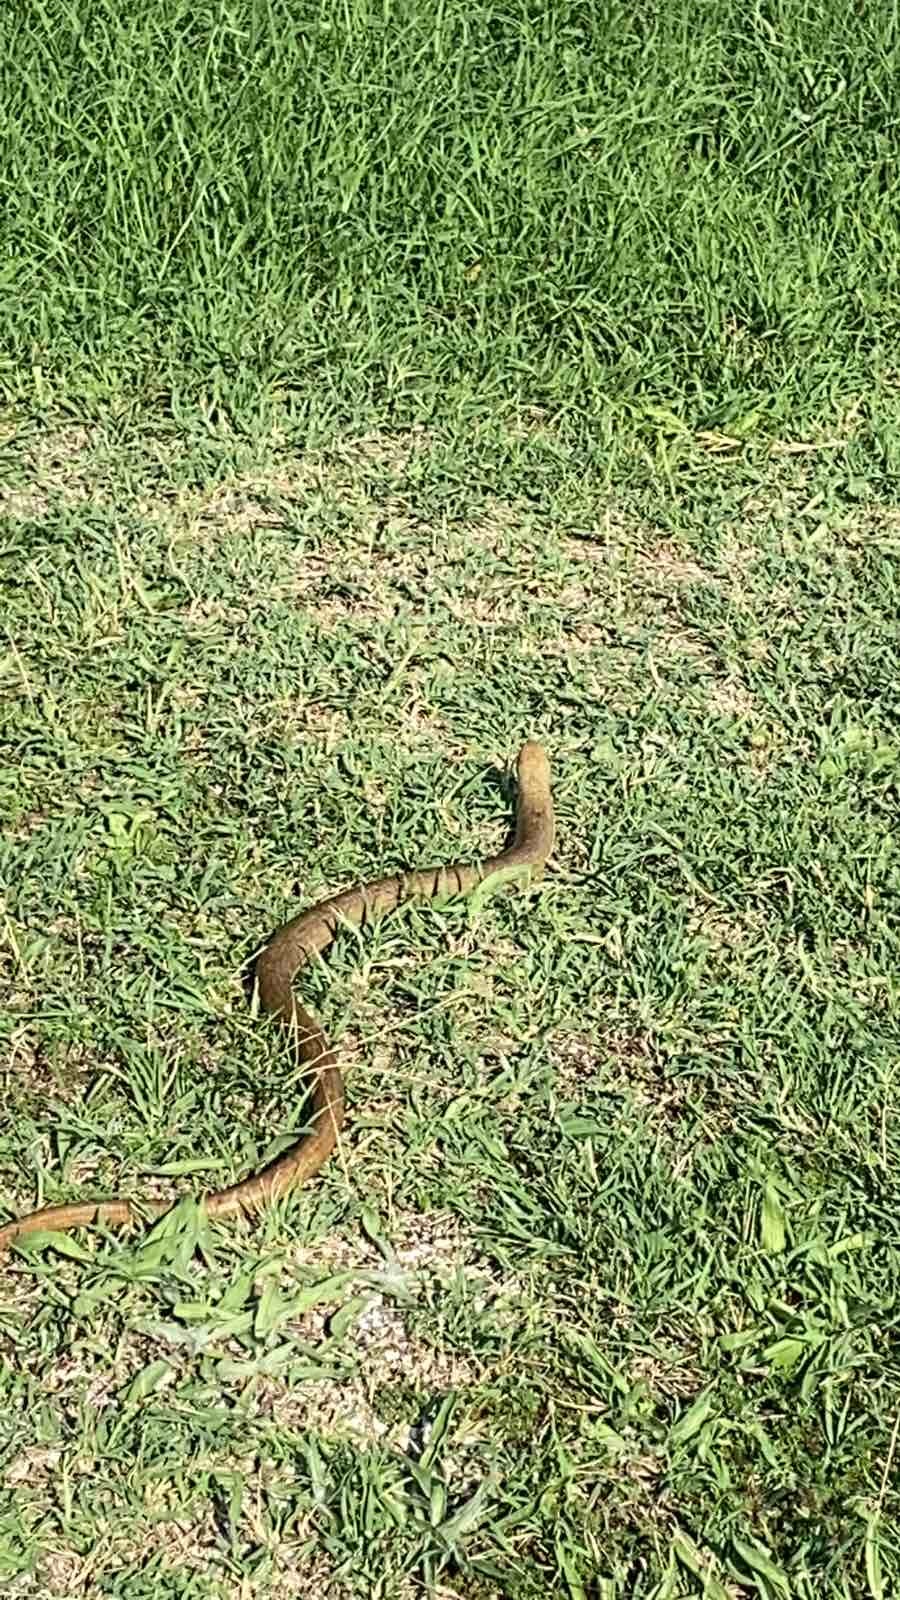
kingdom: Animalia
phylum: Chordata
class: Squamata
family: Anguidae
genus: Pseudopus
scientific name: Pseudopus apodus
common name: European glass lizard
